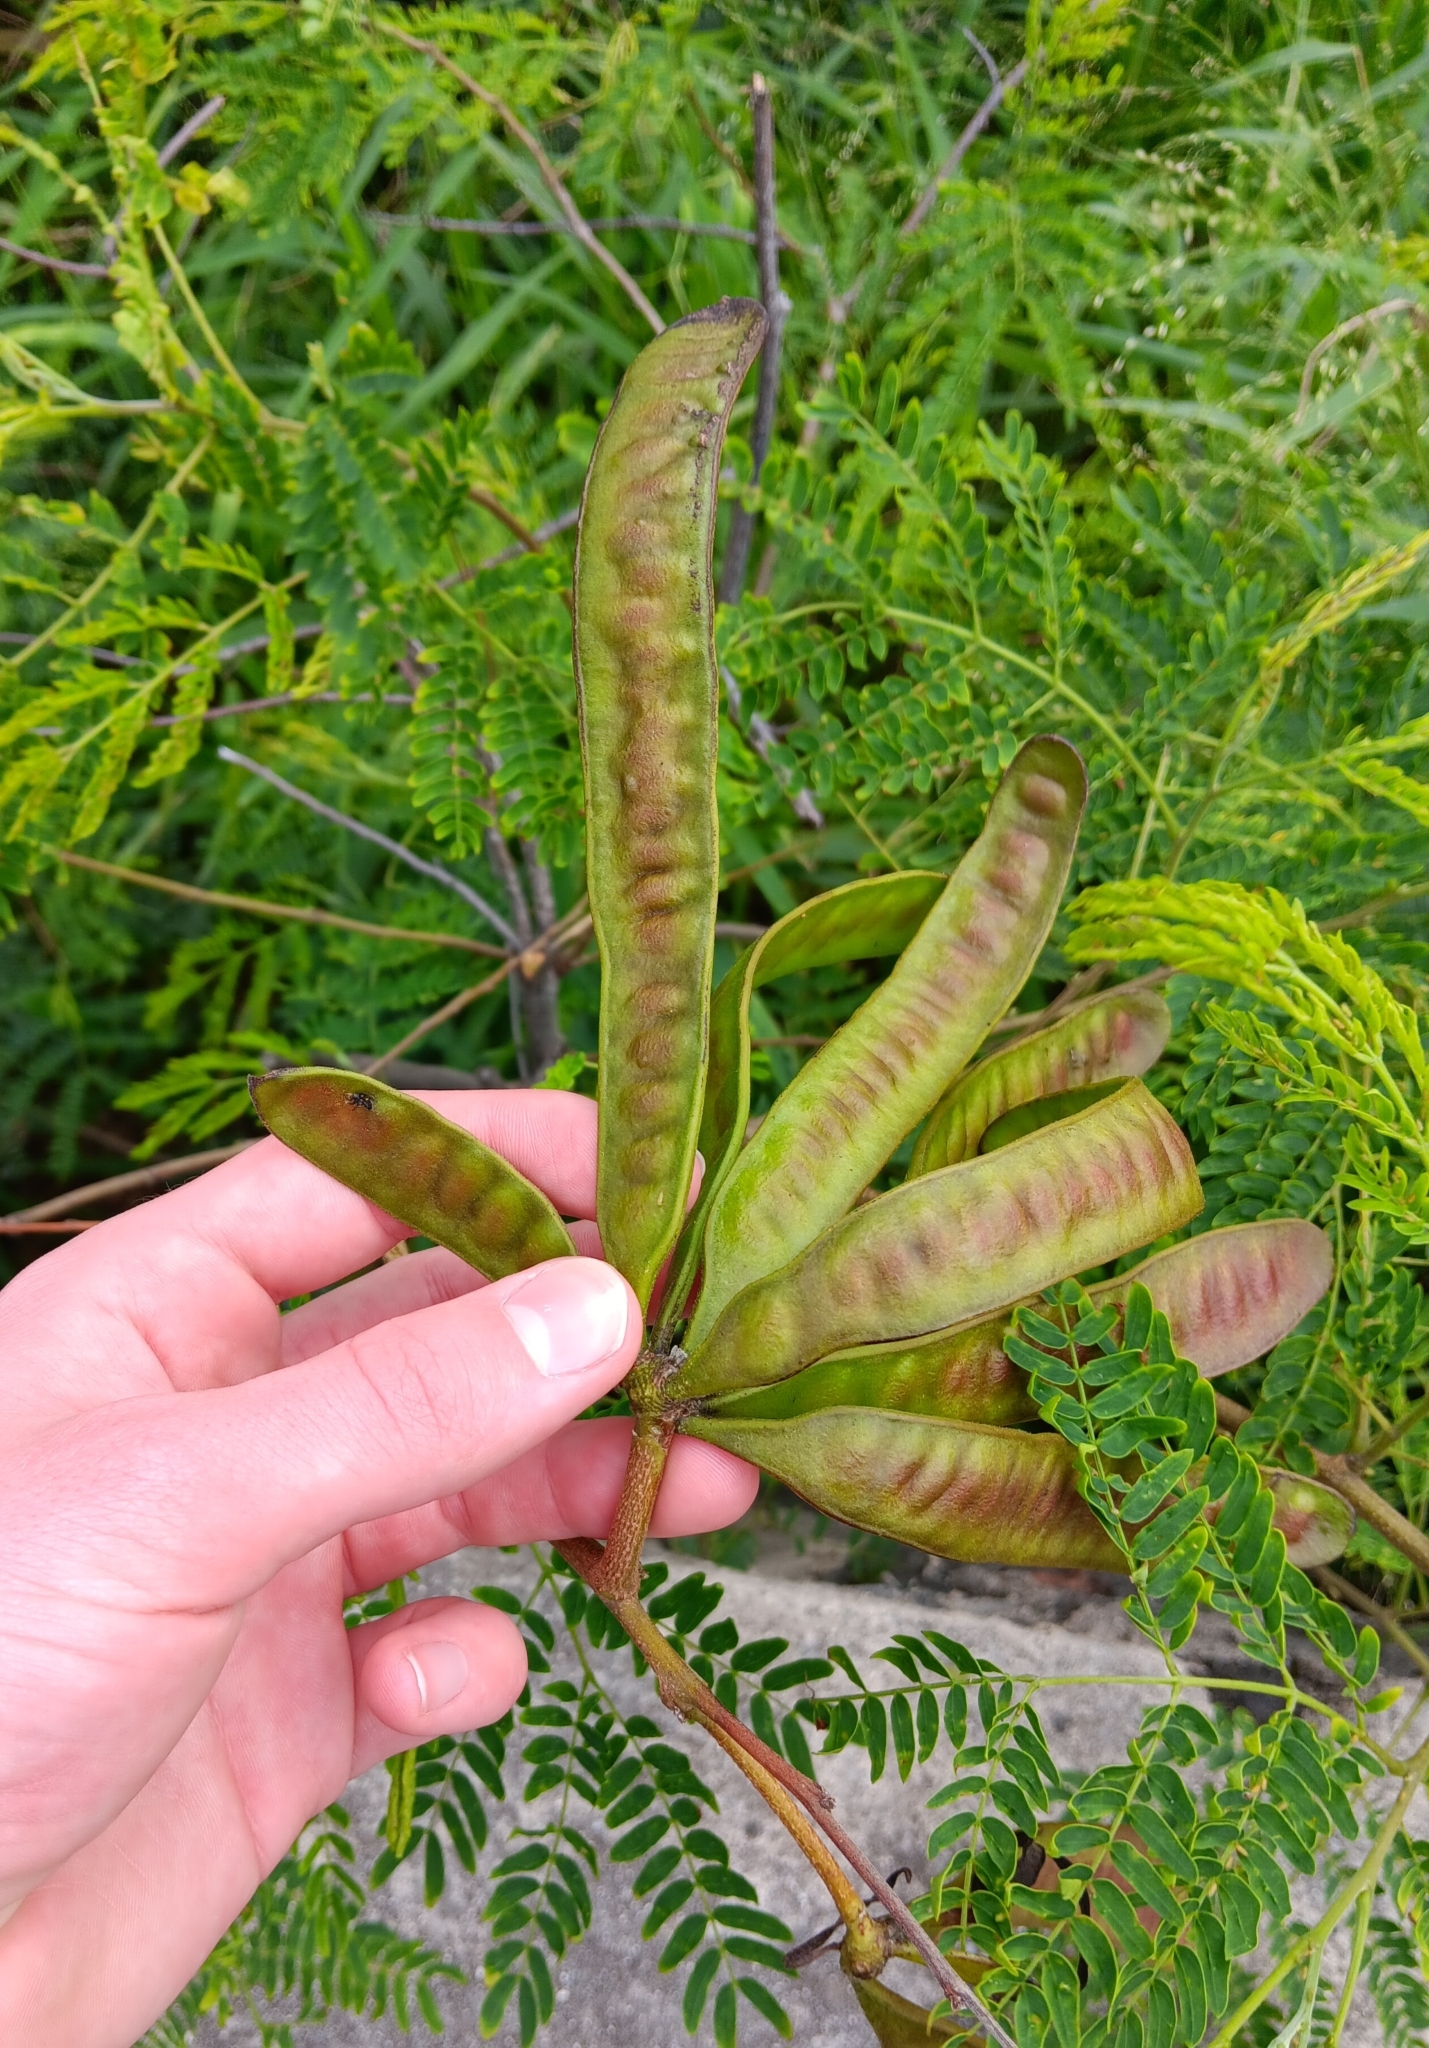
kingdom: Plantae
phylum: Tracheophyta
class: Magnoliopsida
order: Fabales
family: Fabaceae
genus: Leucaena
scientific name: Leucaena leucocephala
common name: White leadtree
